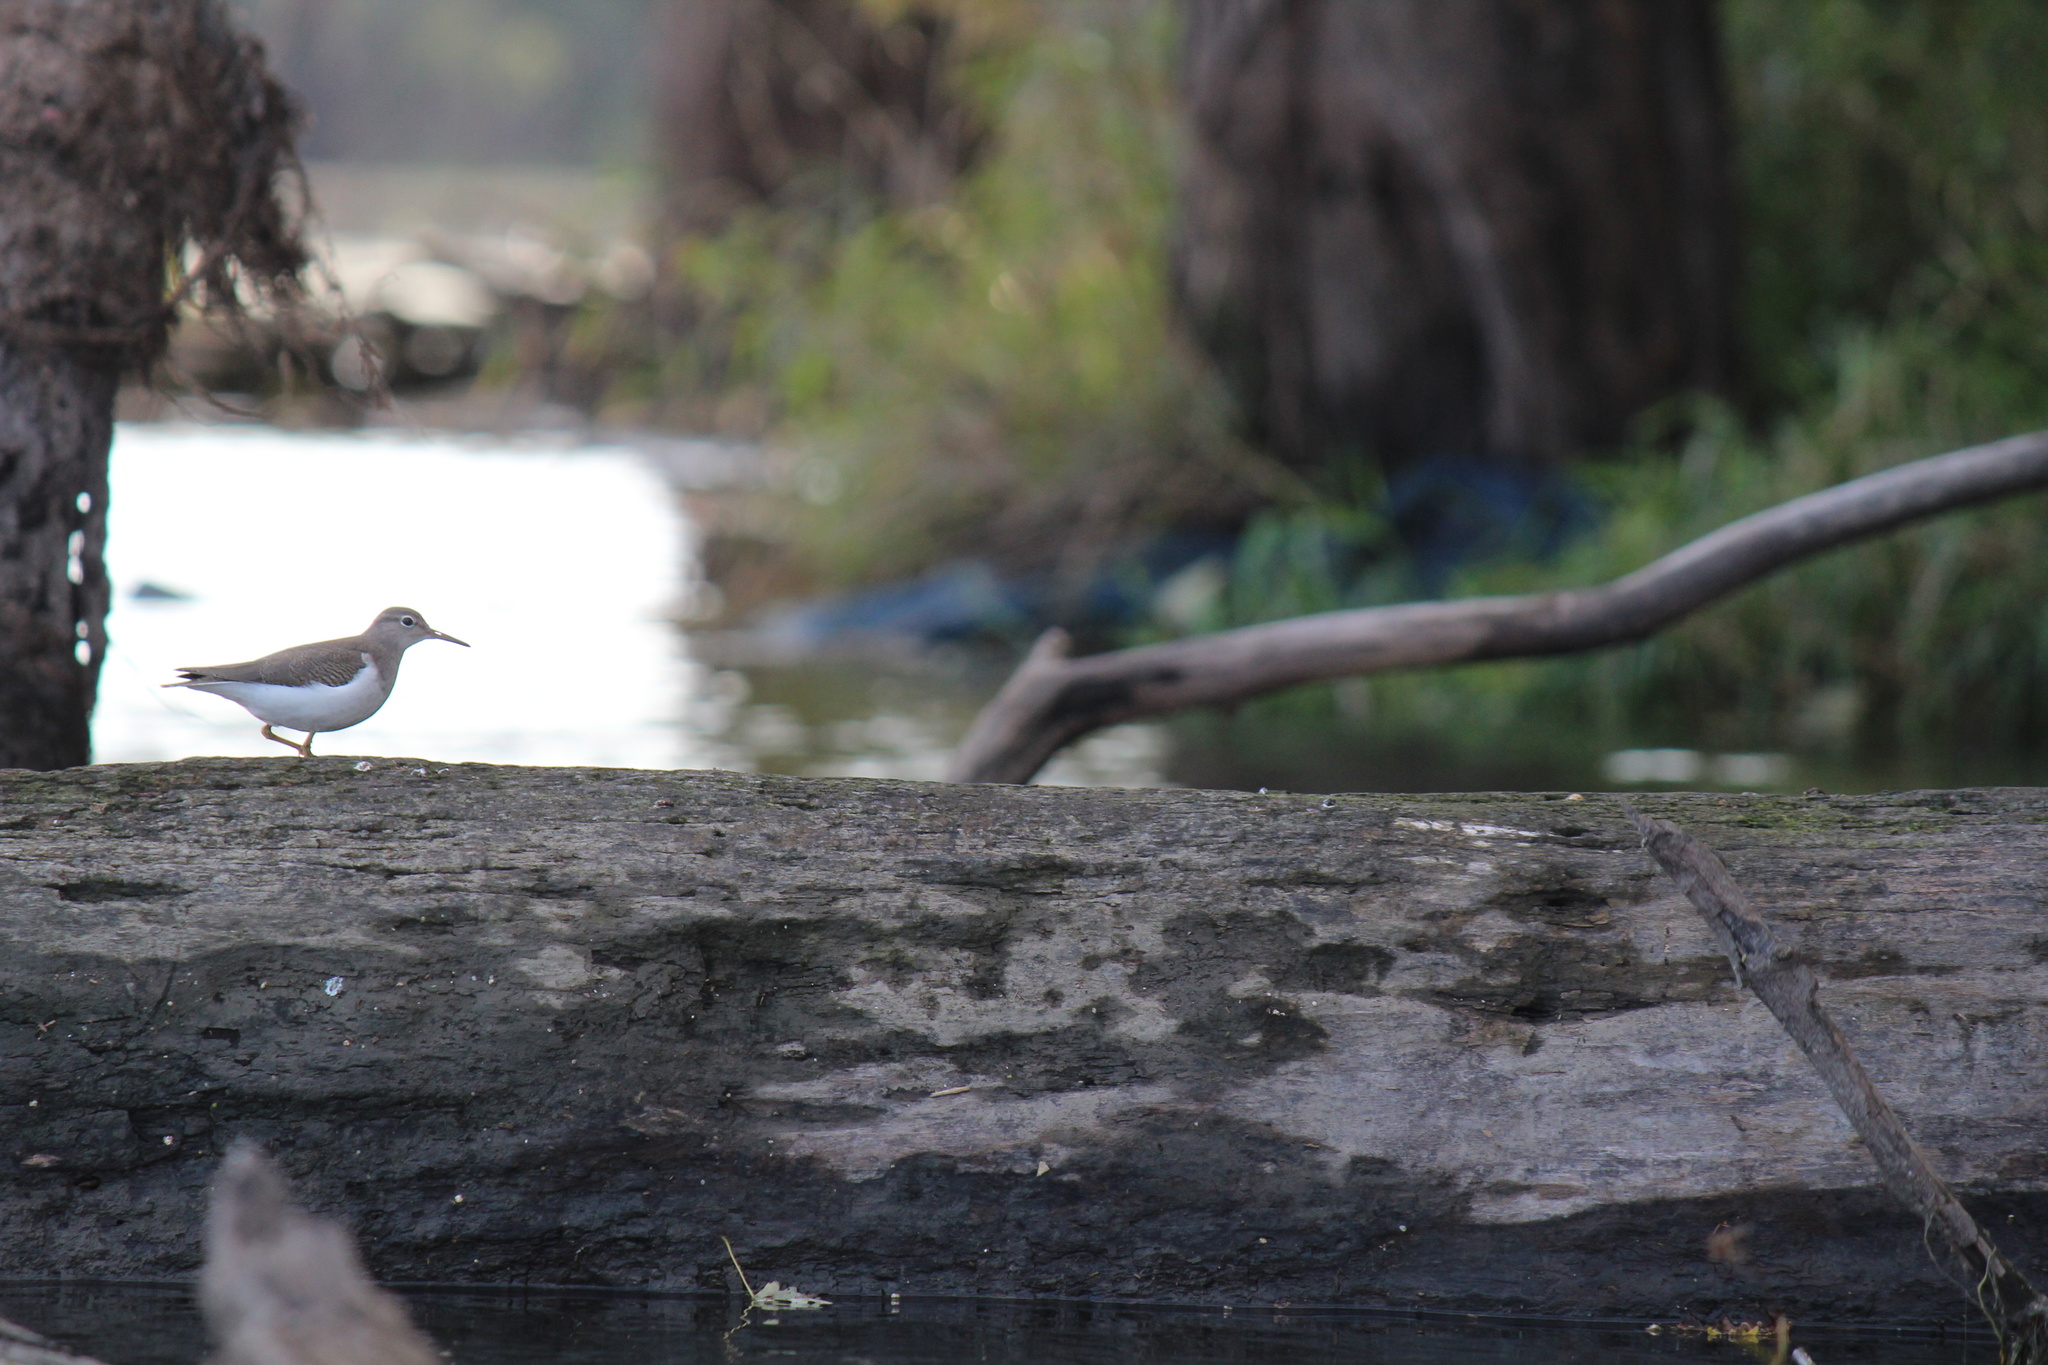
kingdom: Animalia
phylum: Chordata
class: Aves
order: Charadriiformes
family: Scolopacidae
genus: Actitis
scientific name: Actitis macularius
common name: Spotted sandpiper
